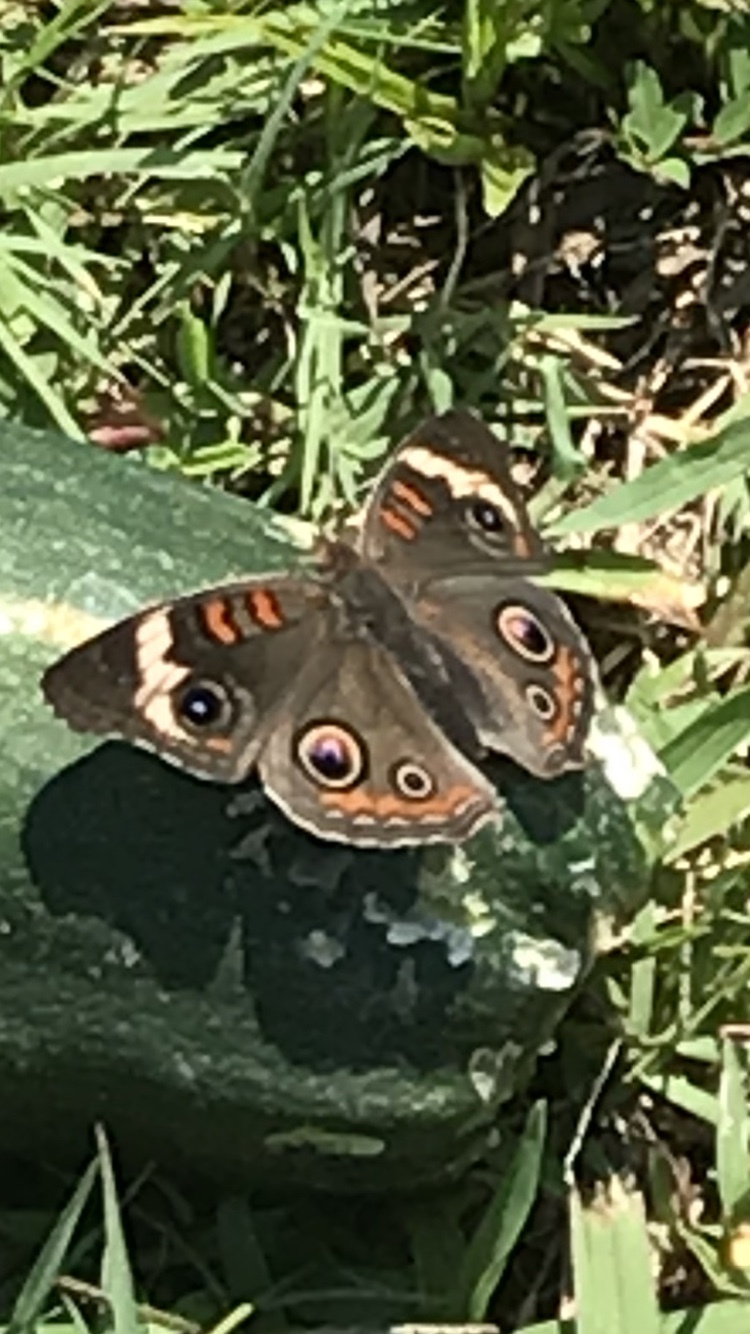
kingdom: Animalia
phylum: Arthropoda
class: Insecta
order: Lepidoptera
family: Nymphalidae
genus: Junonia
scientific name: Junonia coenia
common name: Common buckeye
